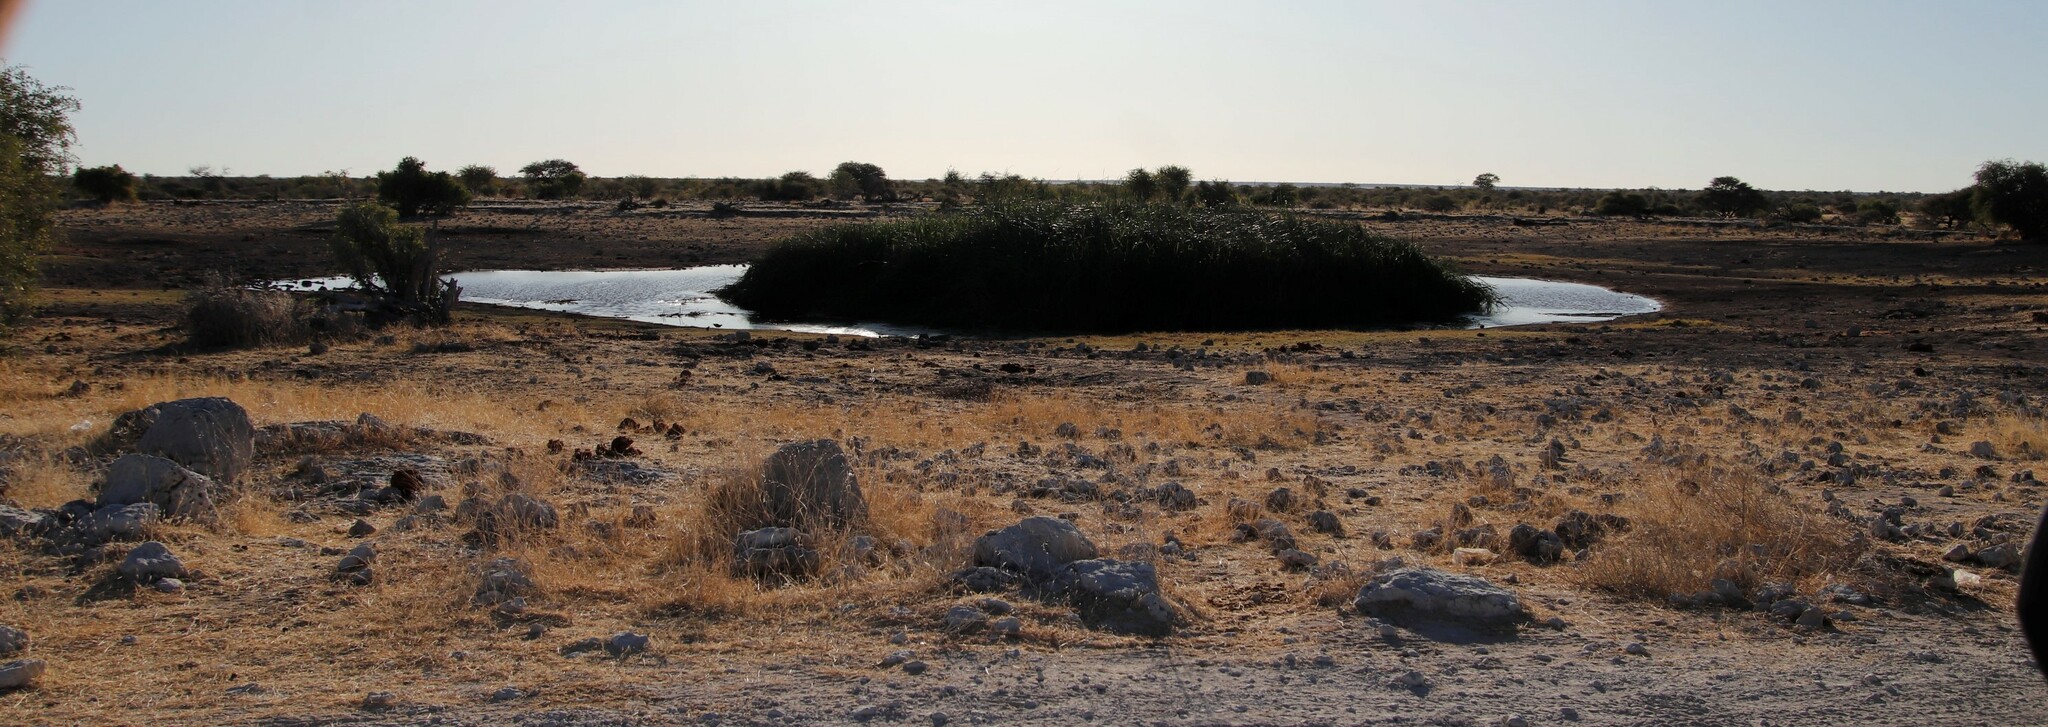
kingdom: Plantae
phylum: Tracheophyta
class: Liliopsida
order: Poales
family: Poaceae
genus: Phragmites
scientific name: Phragmites australis
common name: Common reed
